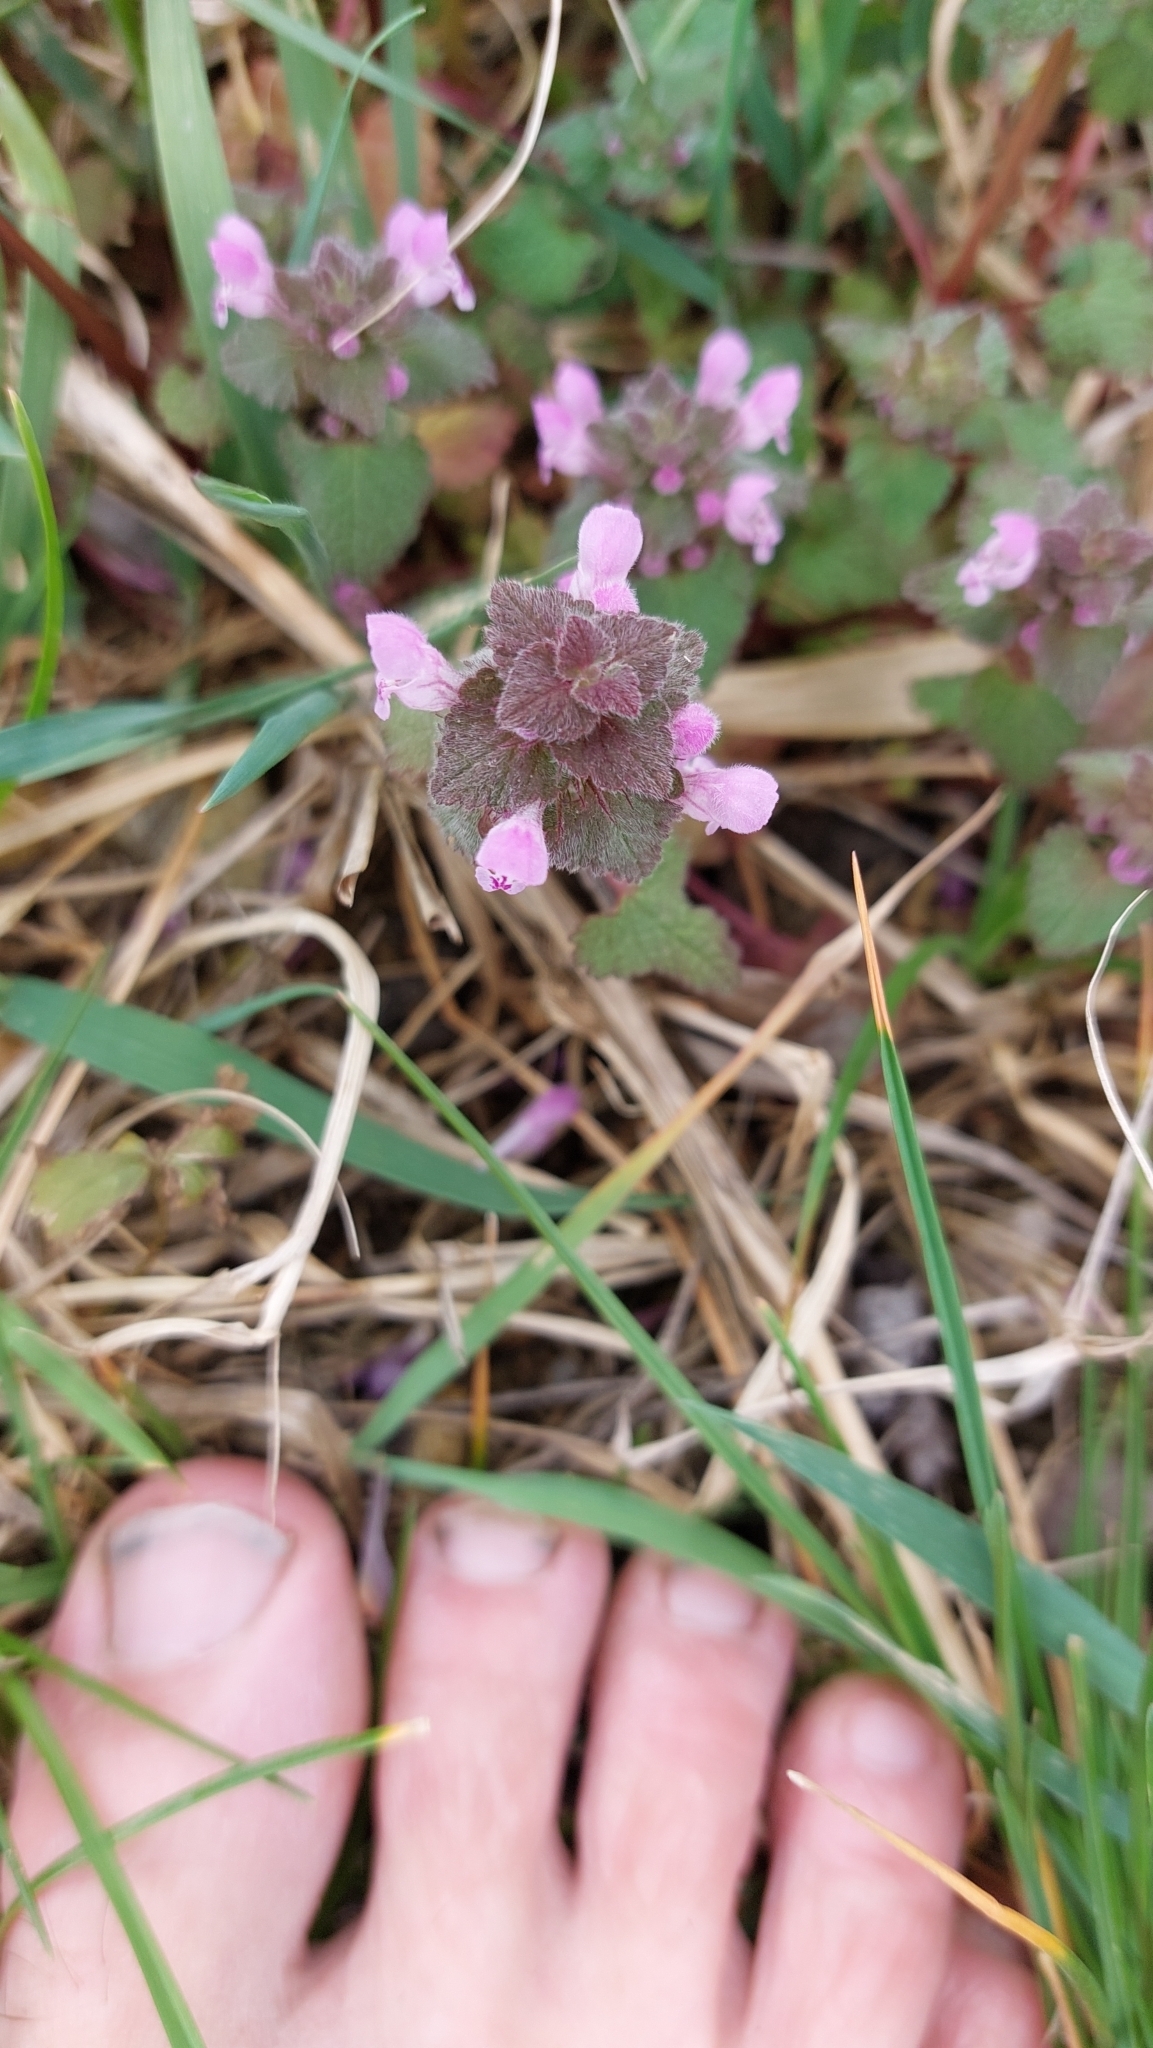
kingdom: Plantae
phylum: Tracheophyta
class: Magnoliopsida
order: Lamiales
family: Lamiaceae
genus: Lamium
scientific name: Lamium purpureum
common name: Red dead-nettle
